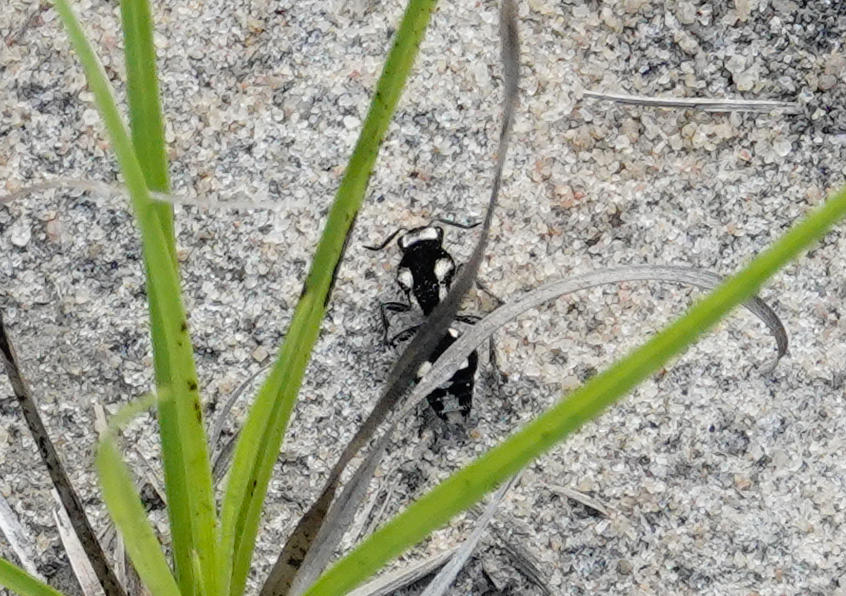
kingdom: Animalia
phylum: Arthropoda
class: Insecta
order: Hymenoptera
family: Mutillidae
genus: Mutilla
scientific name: Mutilla americana
